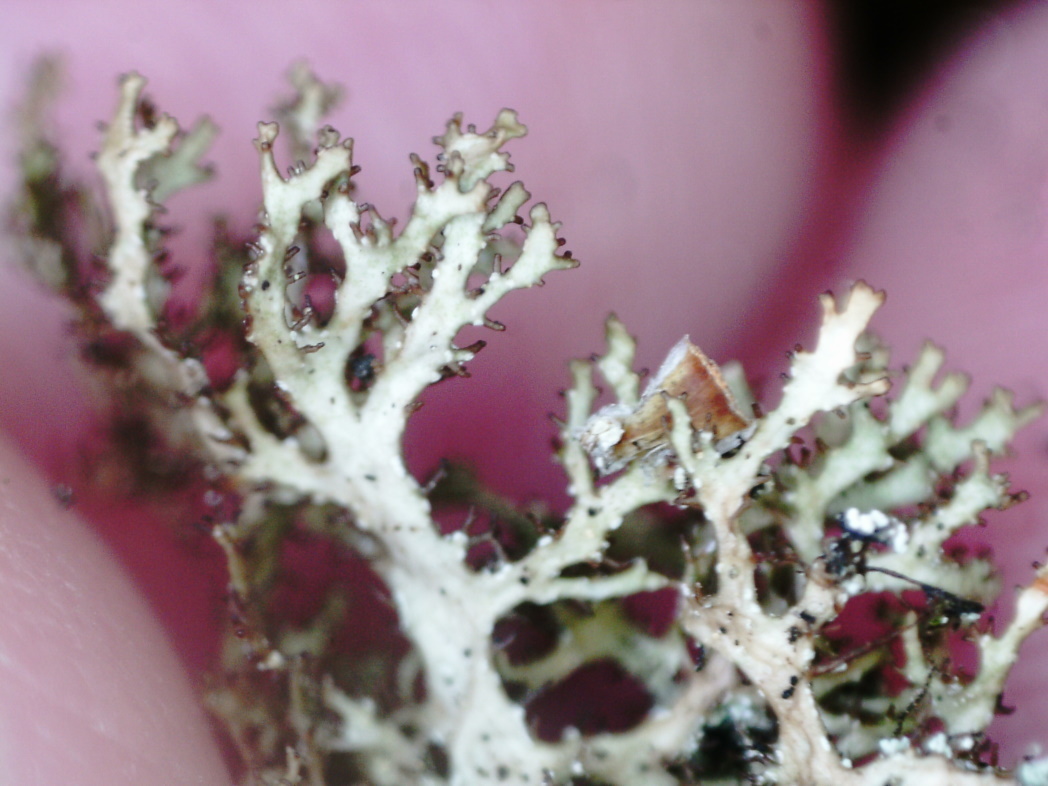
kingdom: Fungi
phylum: Ascomycota
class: Lecanoromycetes
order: Lecanorales
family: Parmeliaceae
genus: Cetraria
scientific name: Cetraria odontella
